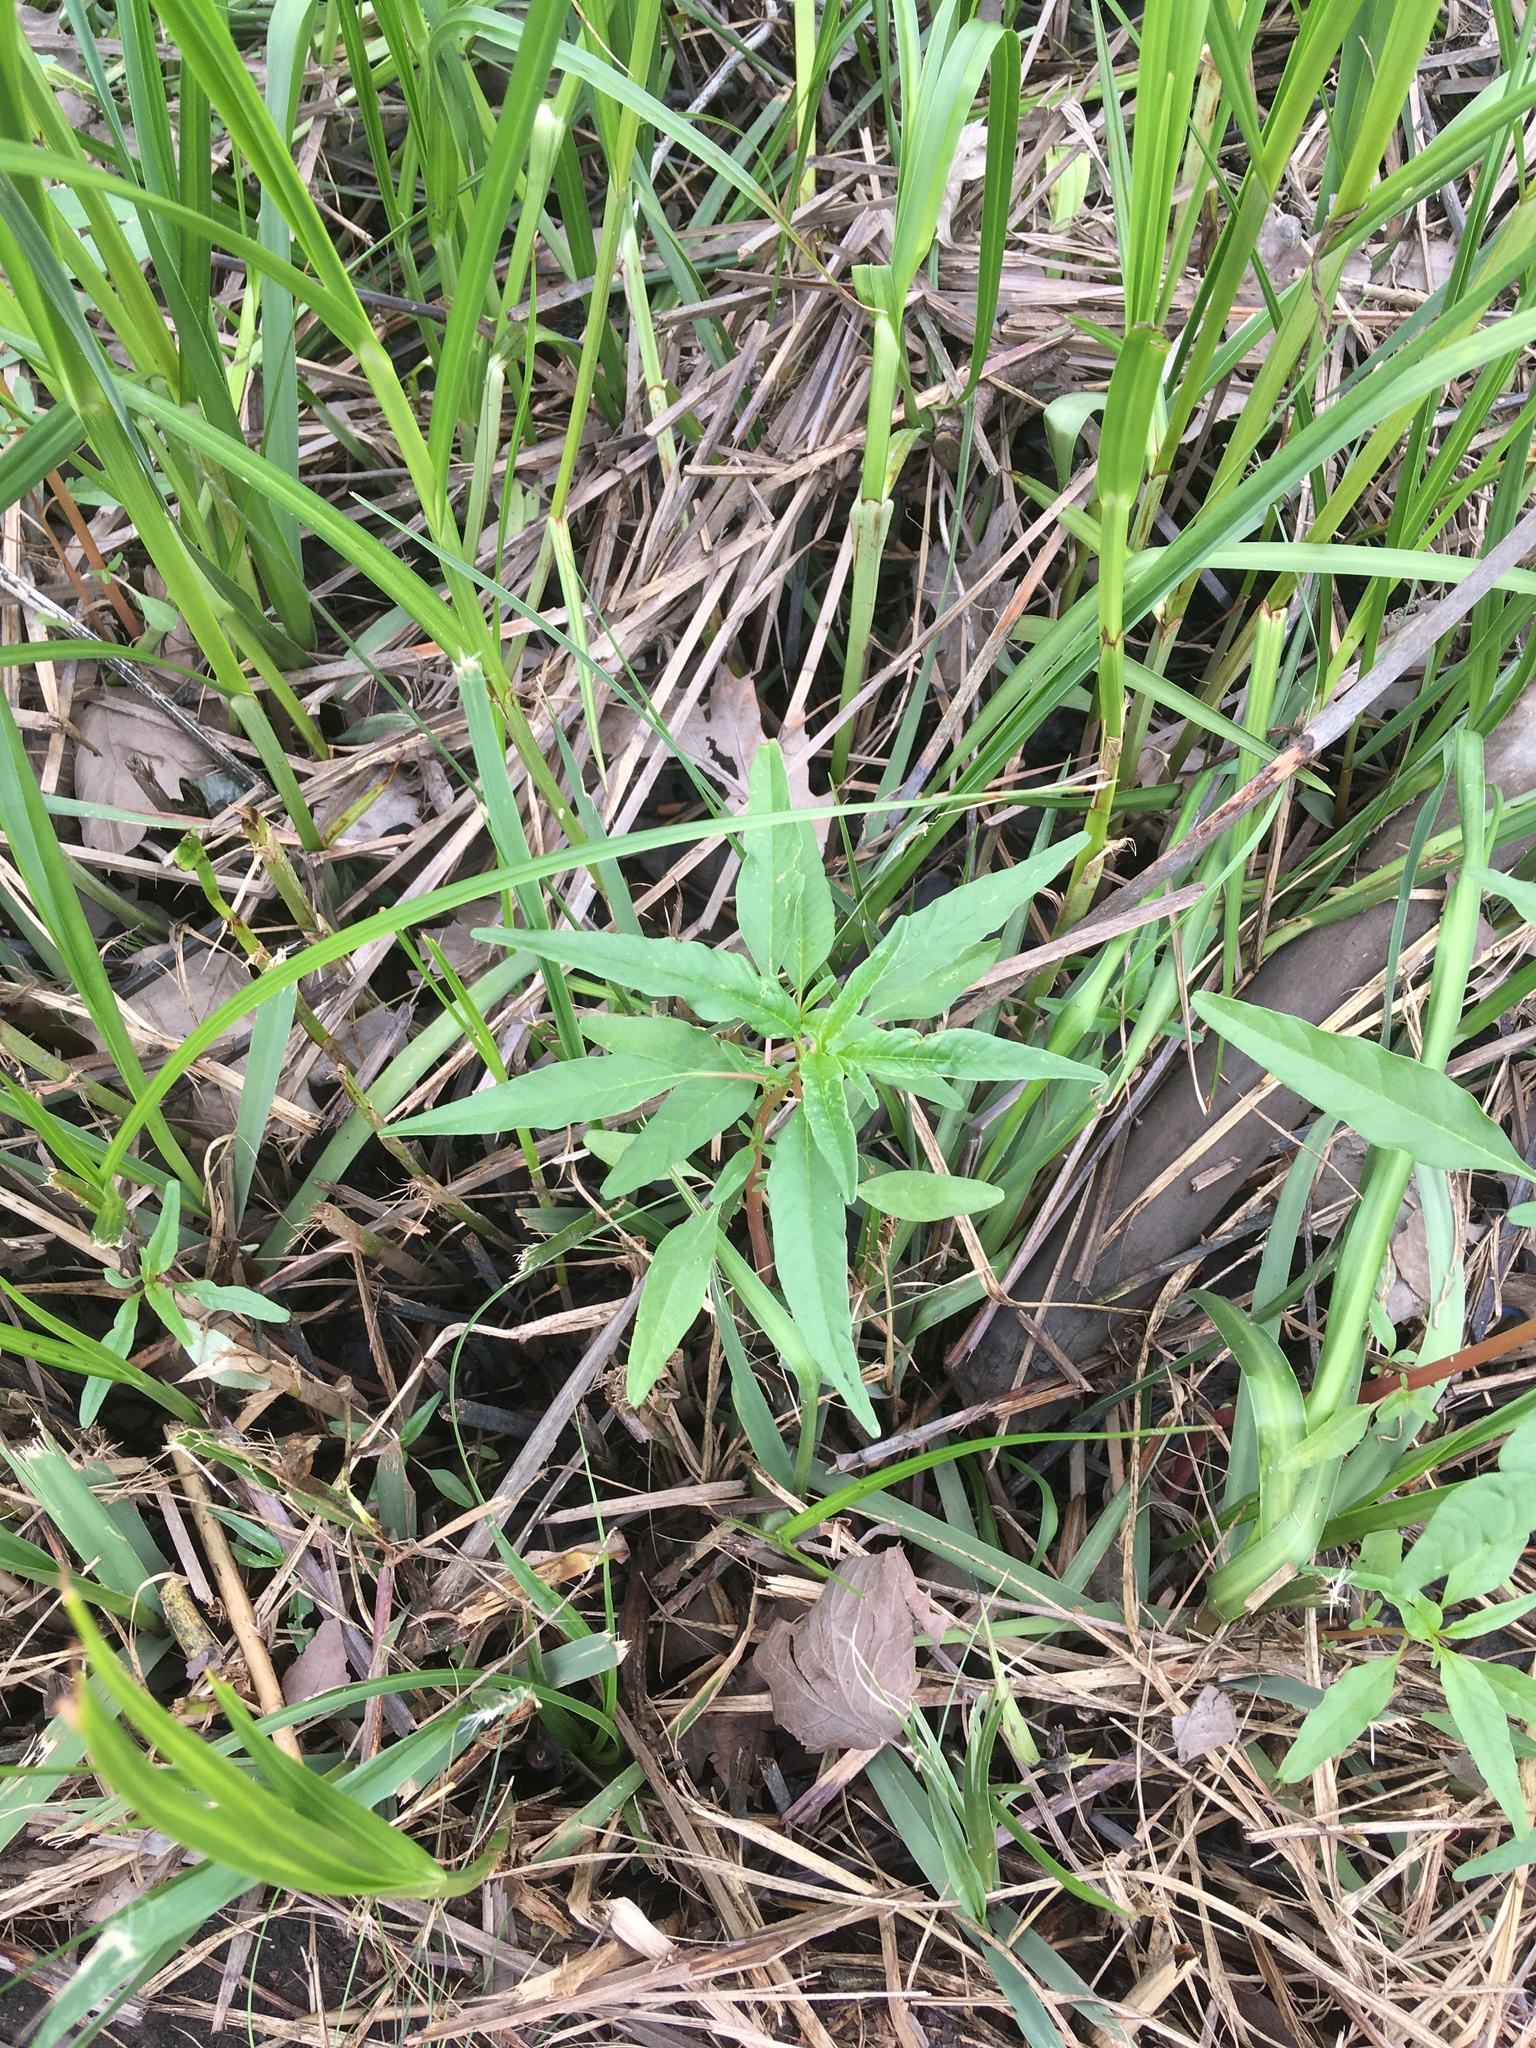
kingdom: Plantae
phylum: Tracheophyta
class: Magnoliopsida
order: Gentianales
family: Apocynaceae
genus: Apocynum
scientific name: Apocynum cannabinum
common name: Hemp dogbane
